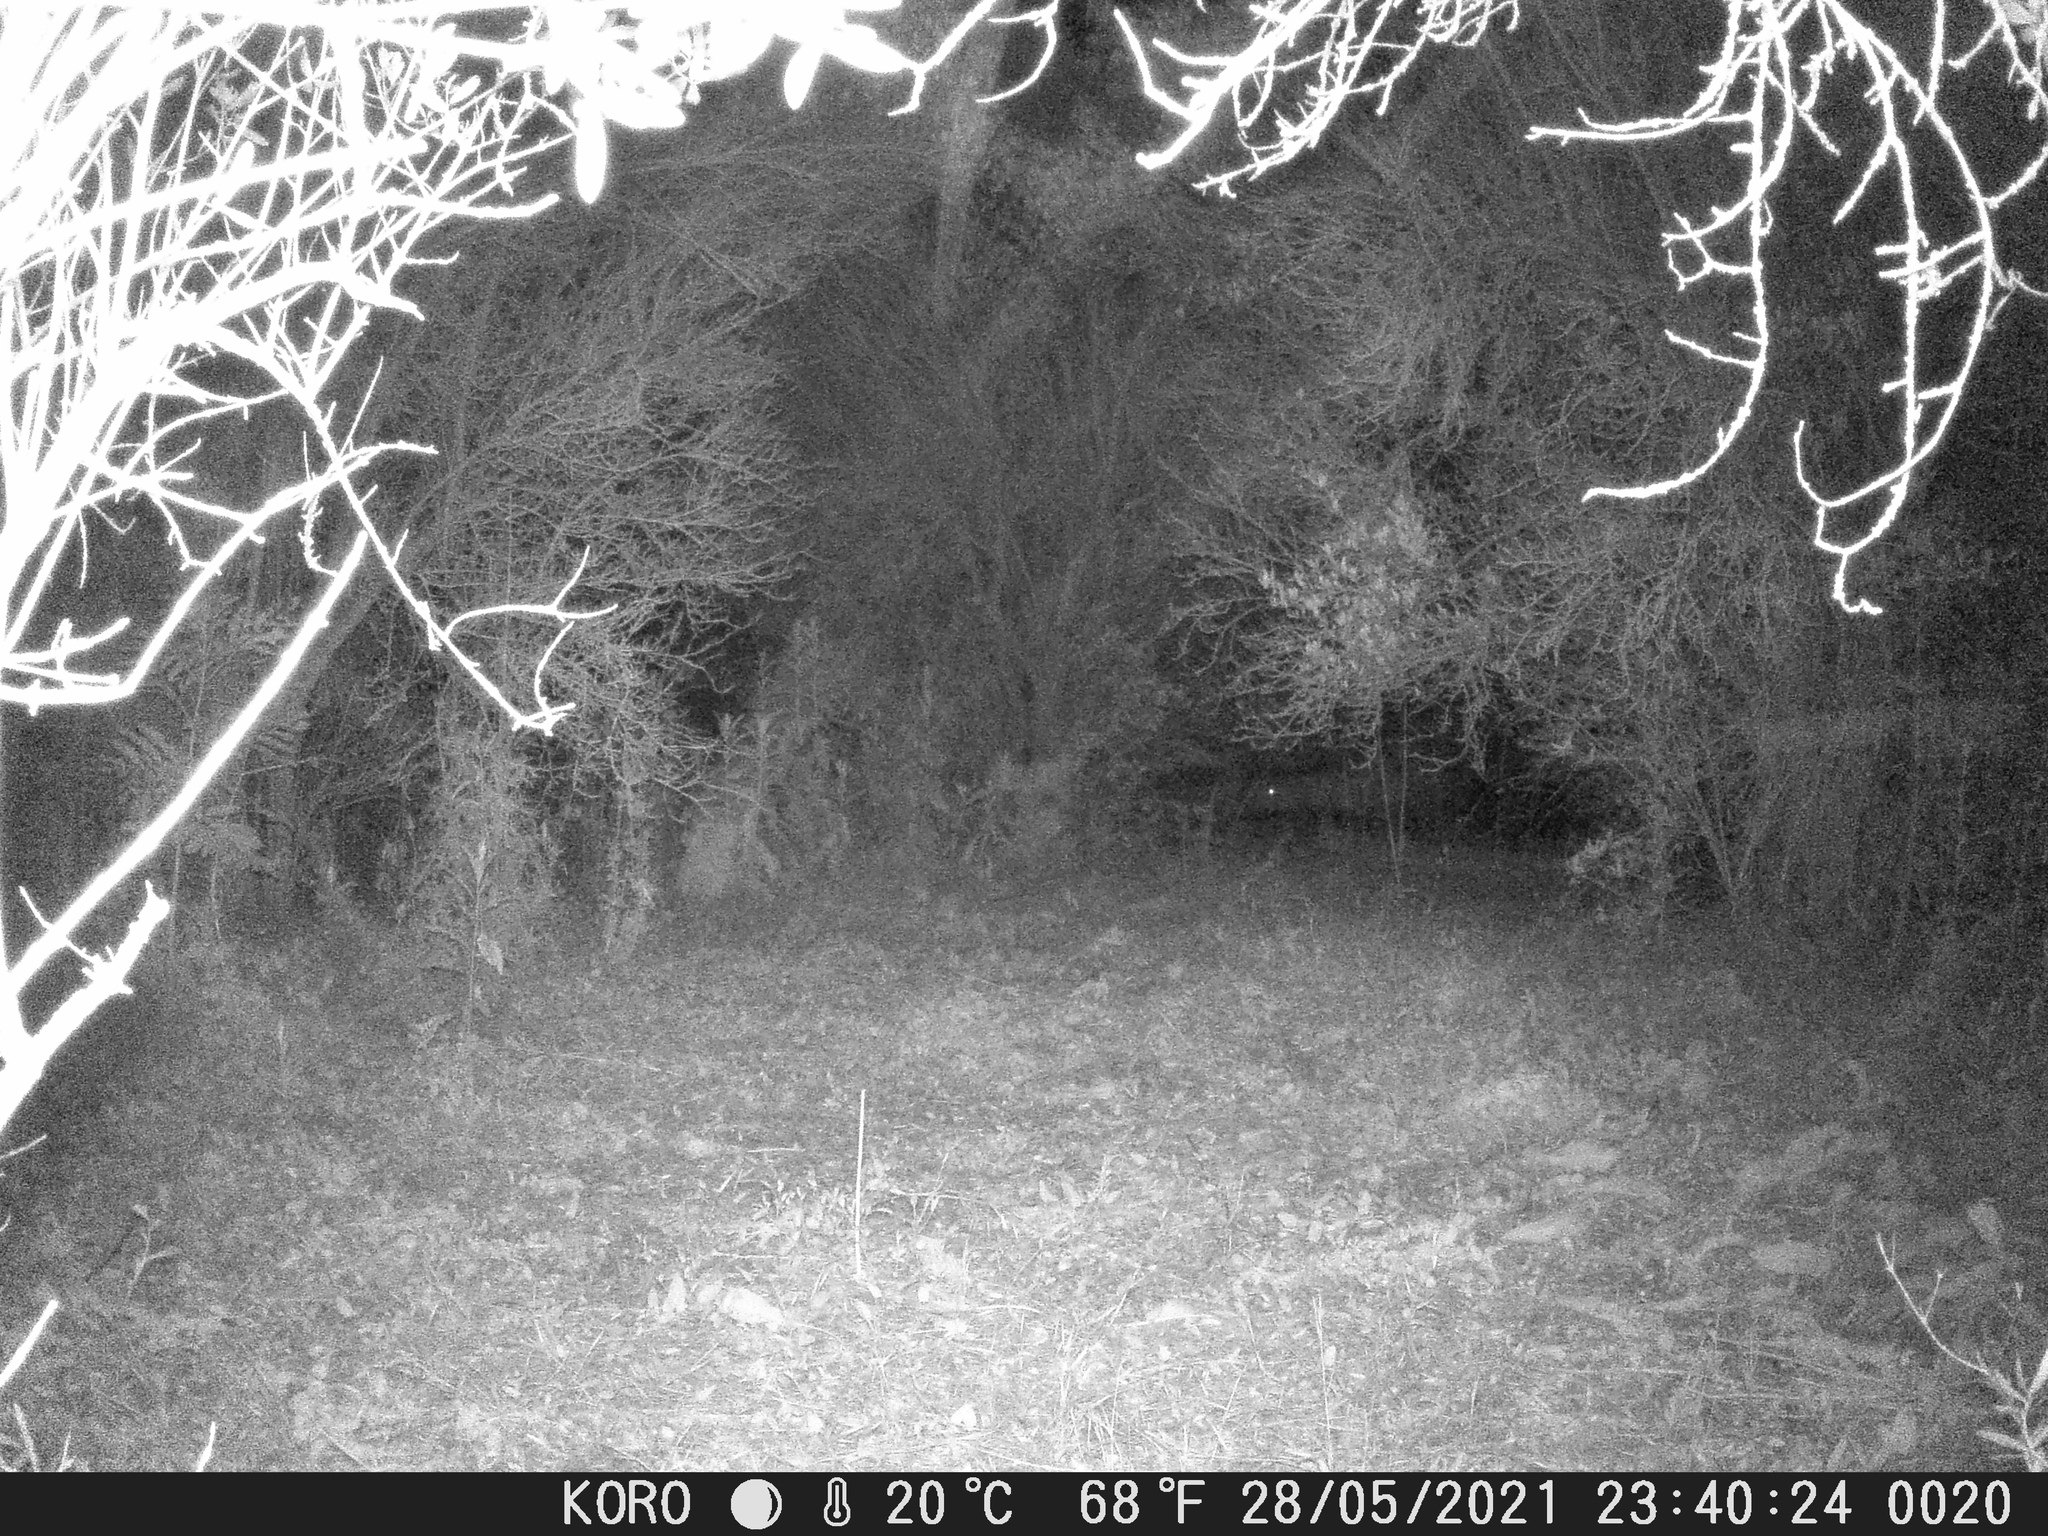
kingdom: Animalia
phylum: Chordata
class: Mammalia
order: Artiodactyla
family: Suidae
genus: Sus
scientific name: Sus scrofa
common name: Wild boar
